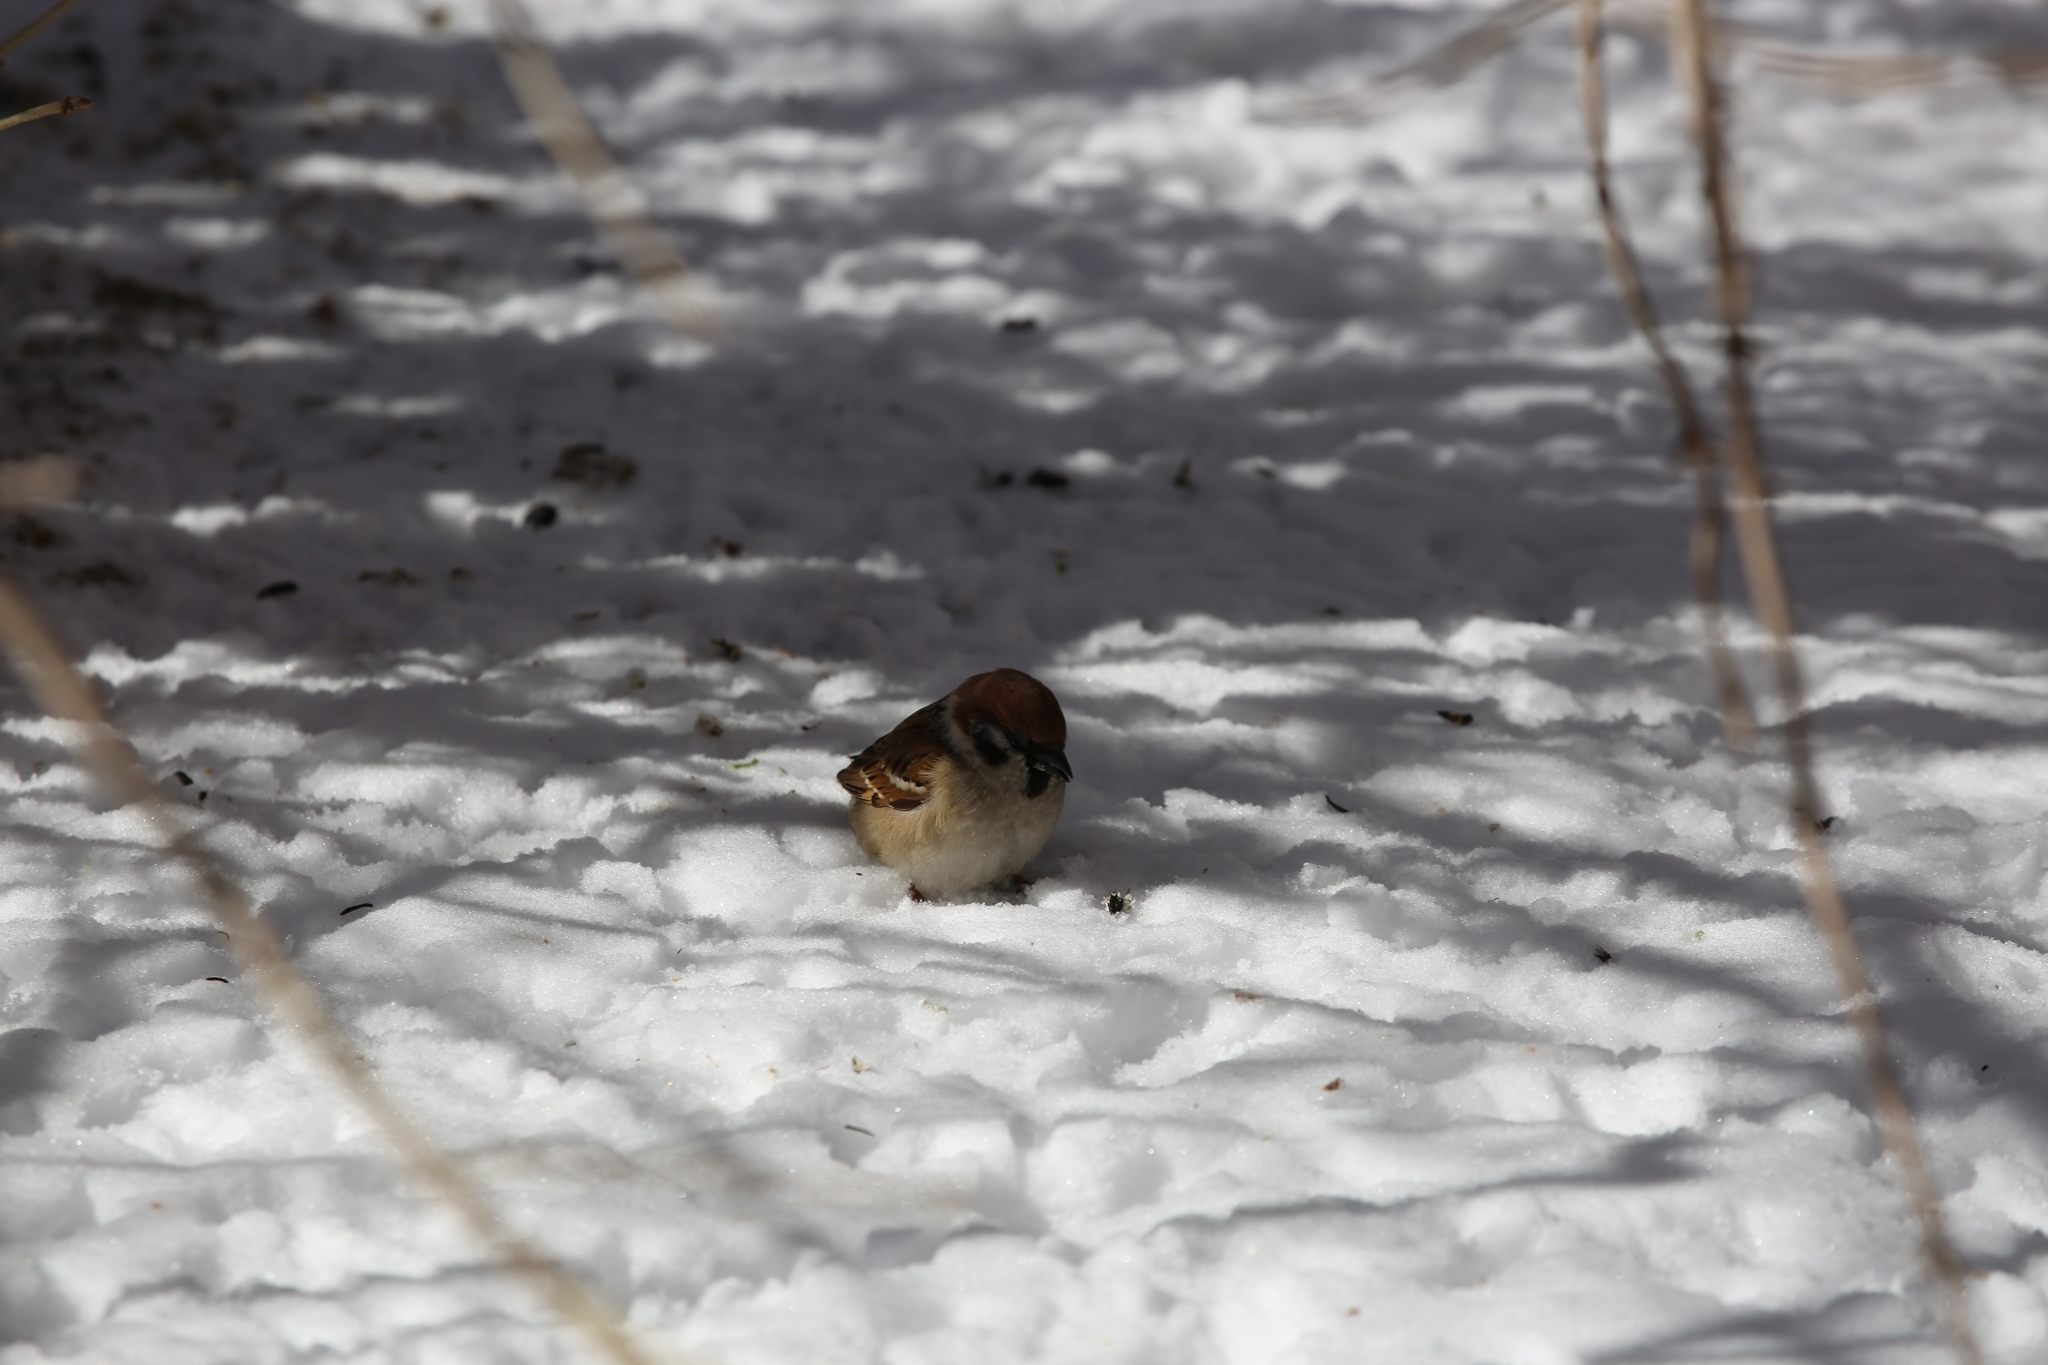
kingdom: Animalia
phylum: Chordata
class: Aves
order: Passeriformes
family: Passeridae
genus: Passer
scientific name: Passer montanus
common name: Eurasian tree sparrow
